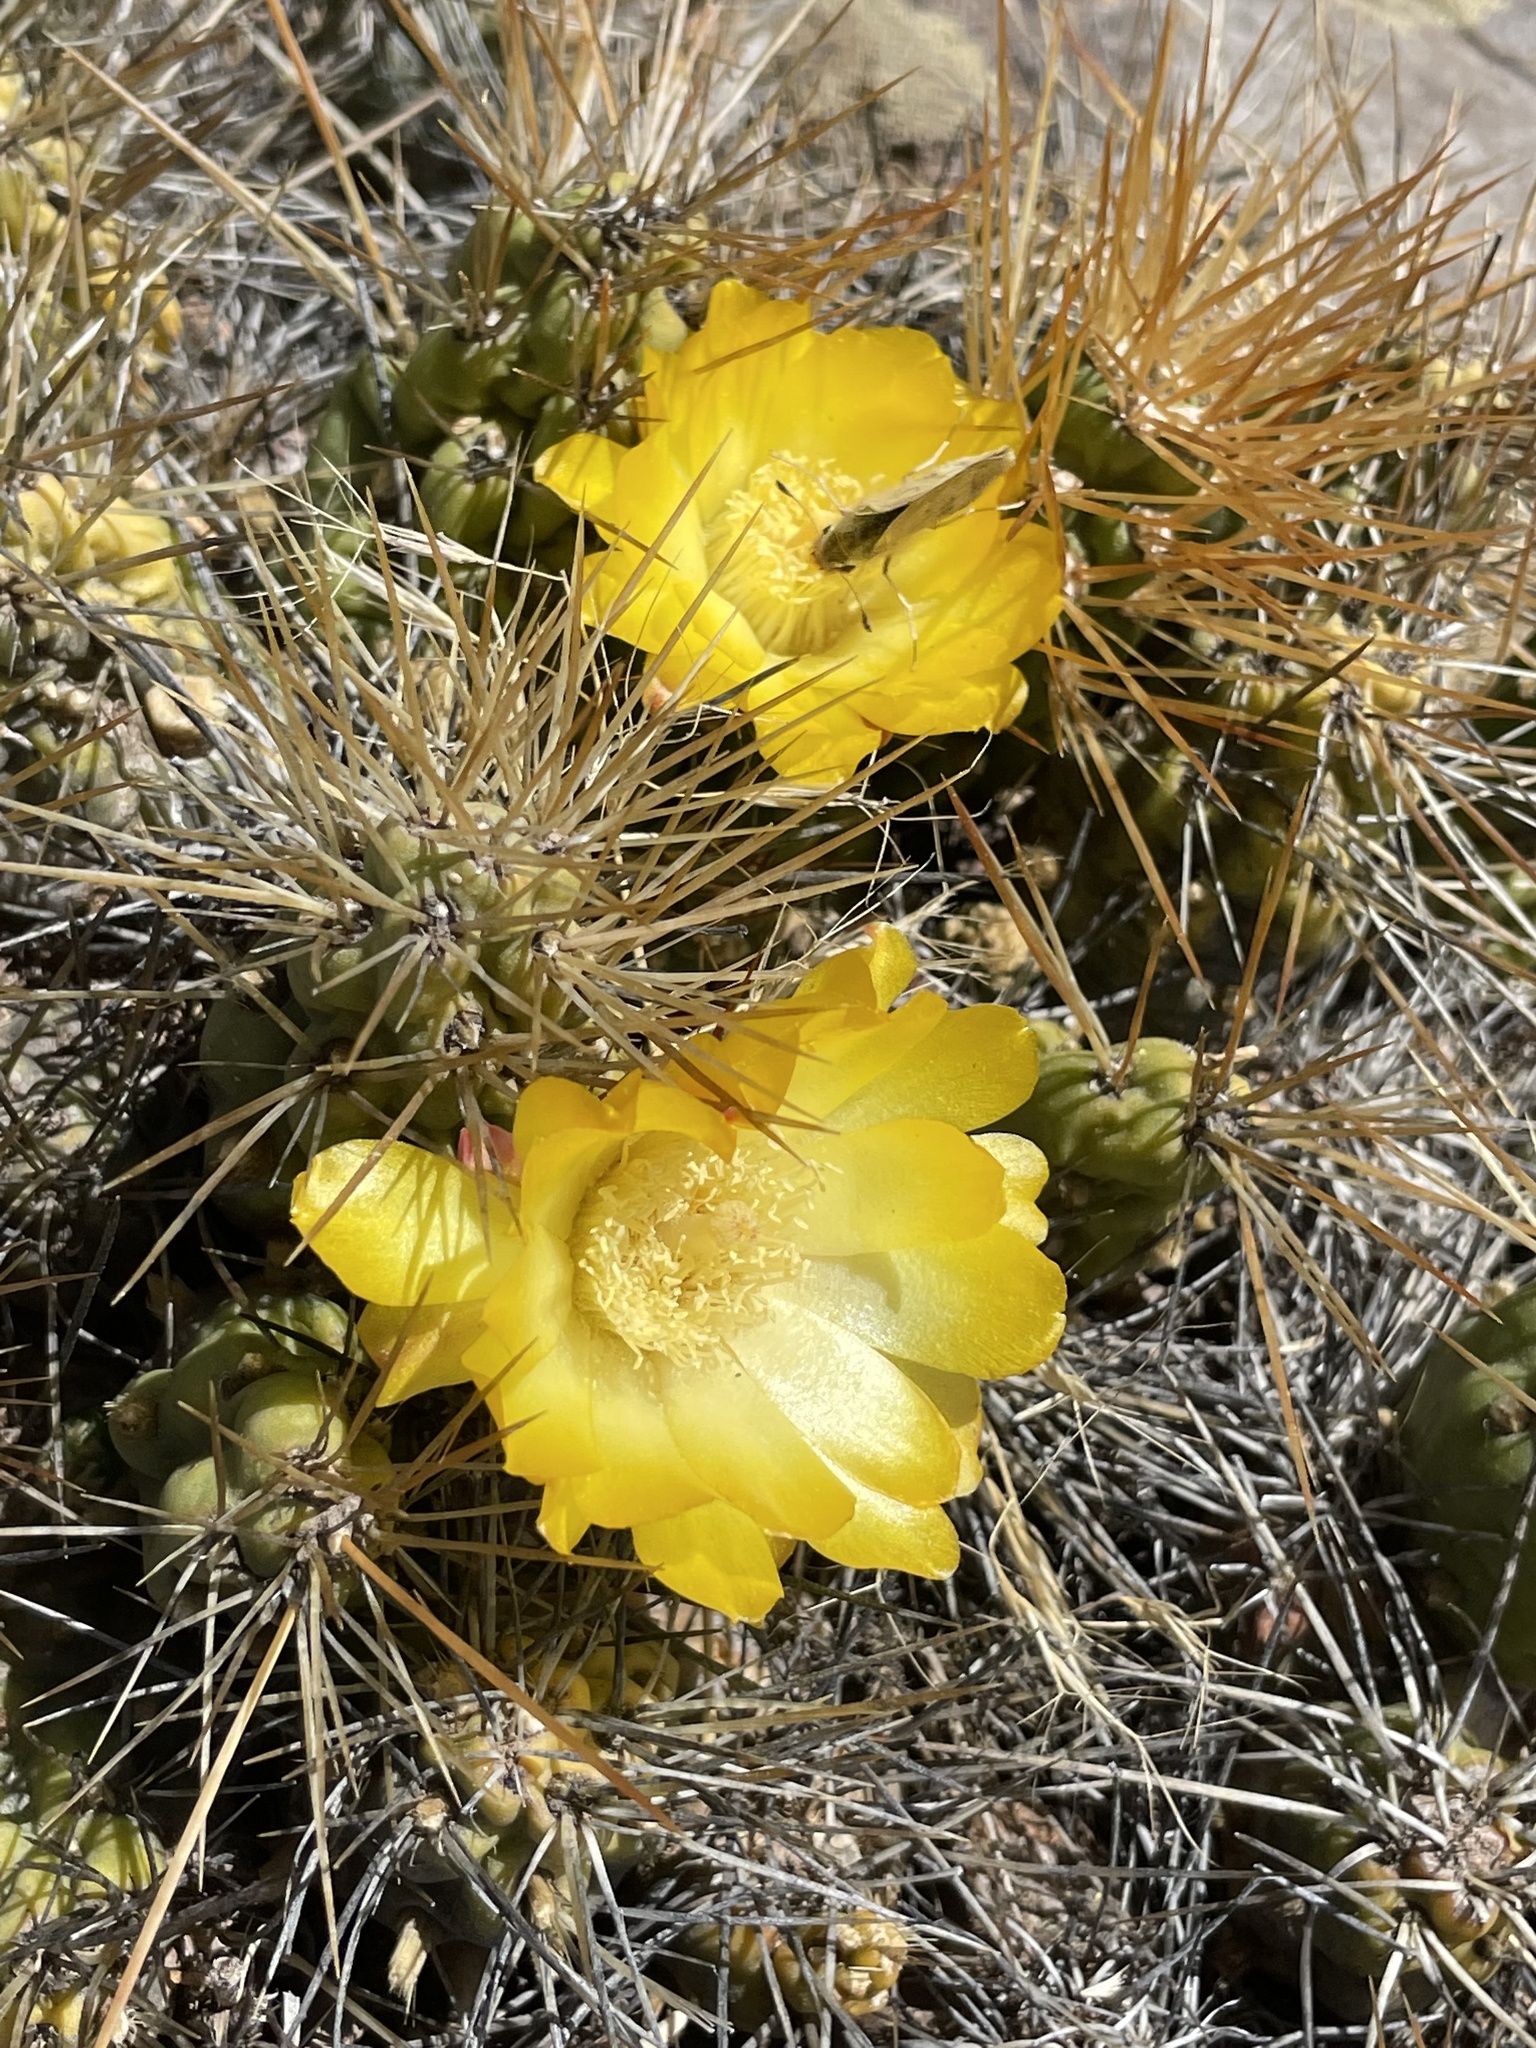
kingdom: Plantae
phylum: Tracheophyta
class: Magnoliopsida
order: Caryophyllales
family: Cactaceae
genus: Cumulopuntia
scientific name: Cumulopuntia boliviana
